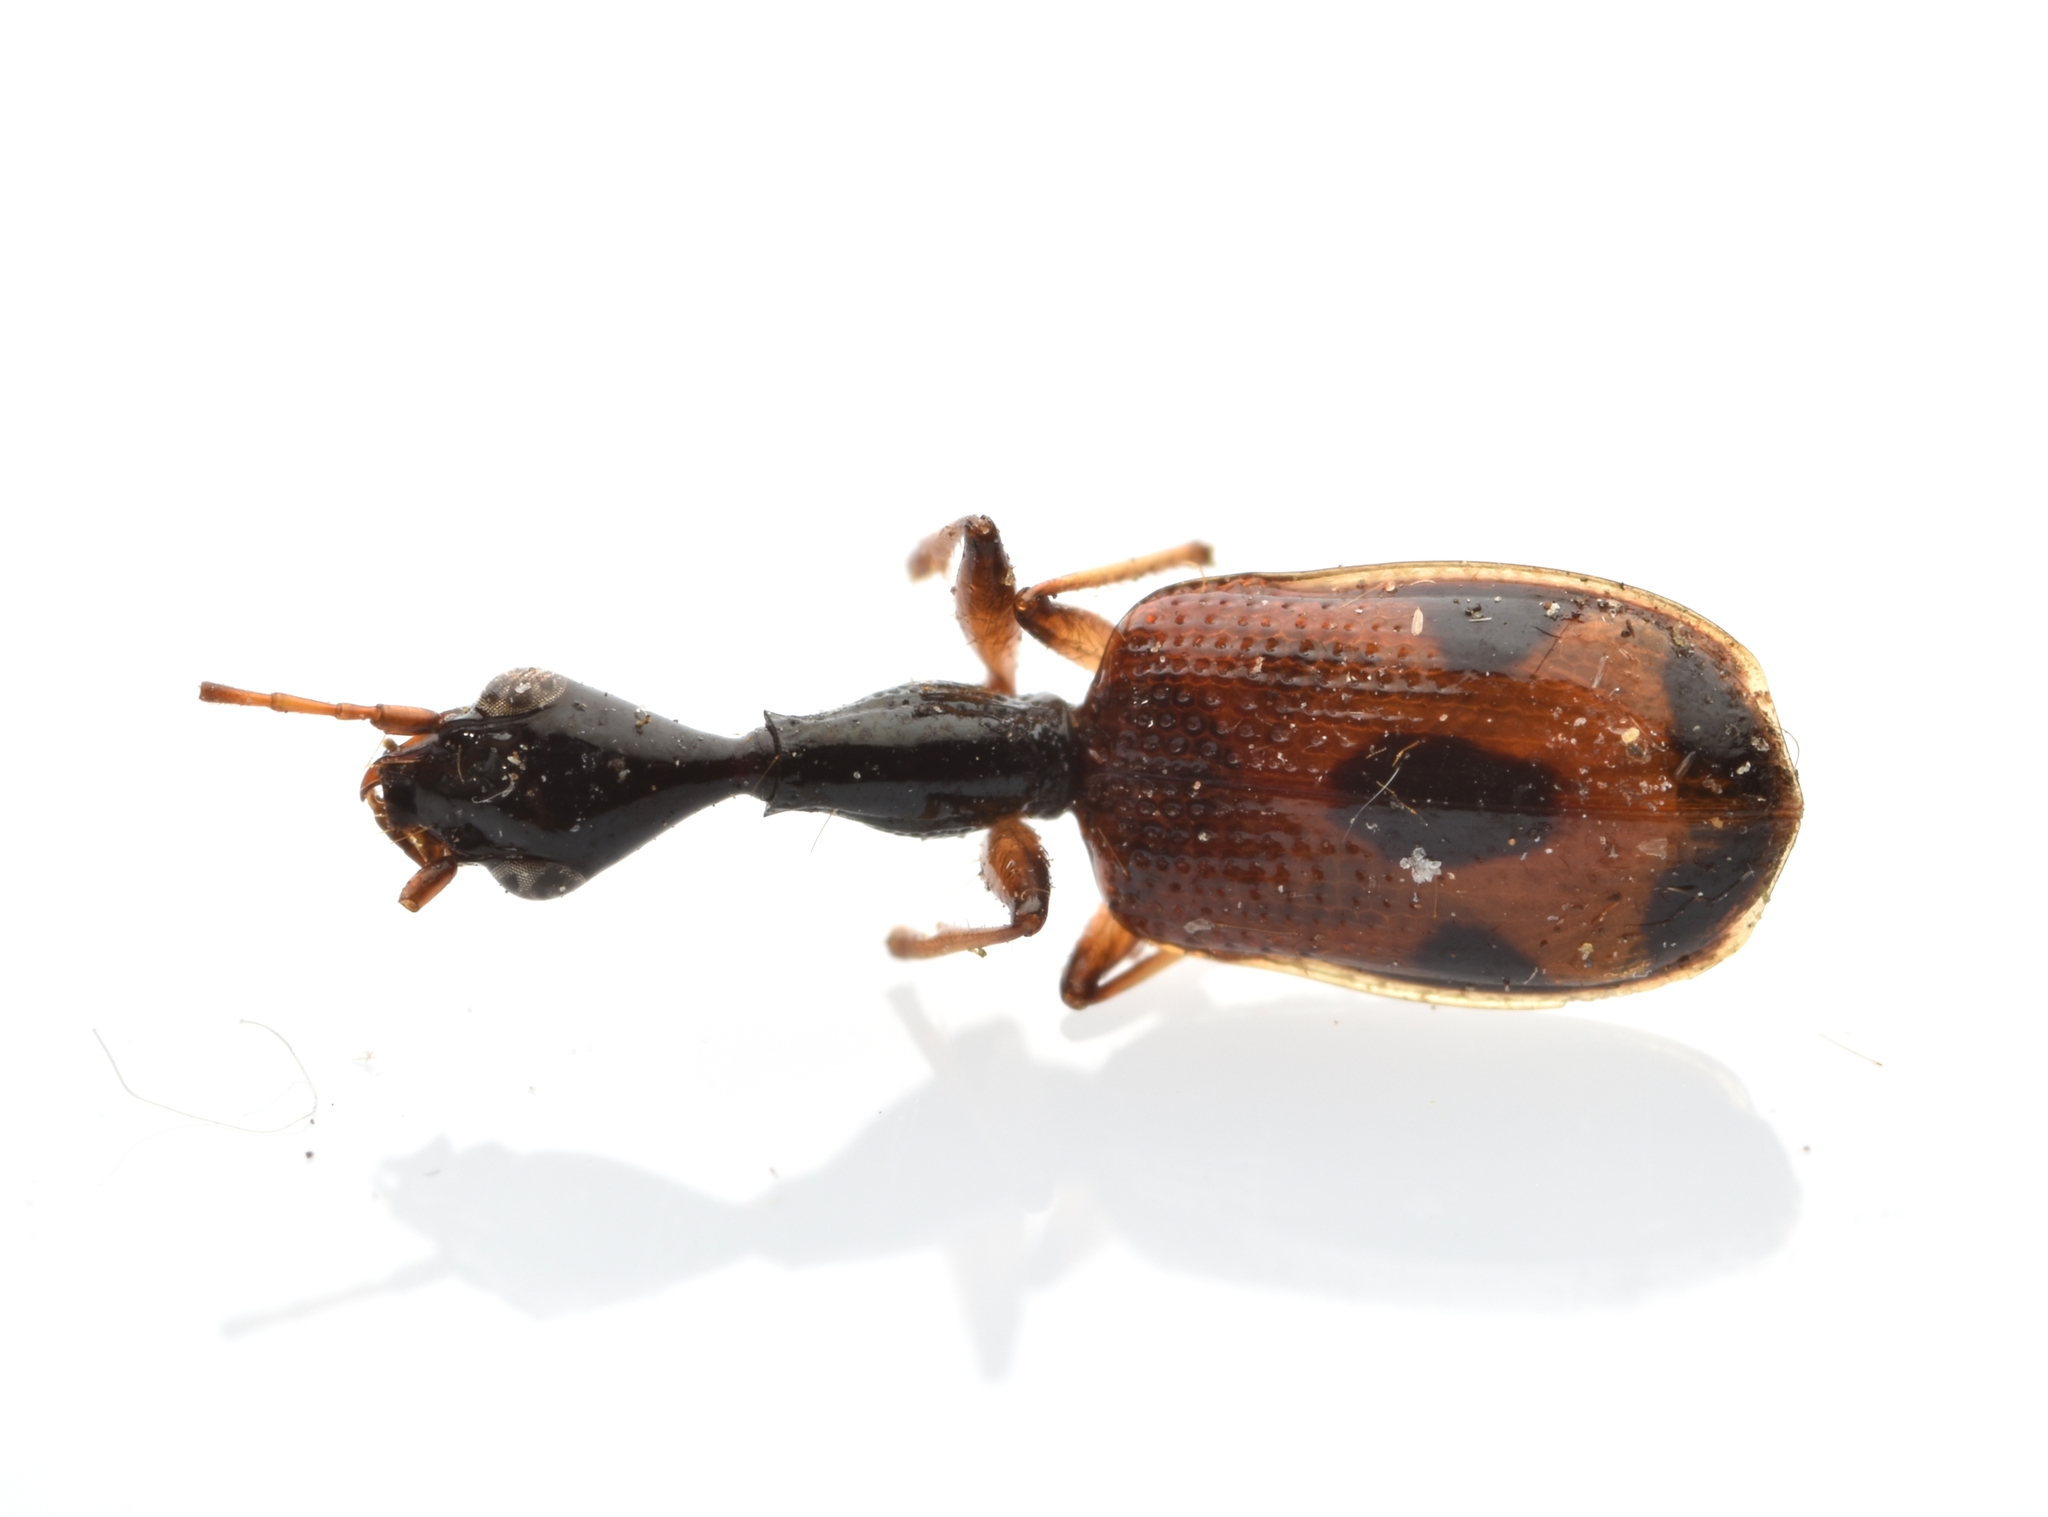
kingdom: Animalia
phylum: Arthropoda
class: Insecta
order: Coleoptera
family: Carabidae
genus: Colliuris
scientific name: Colliuris pensylvanica
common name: Long-necked ground beetle
